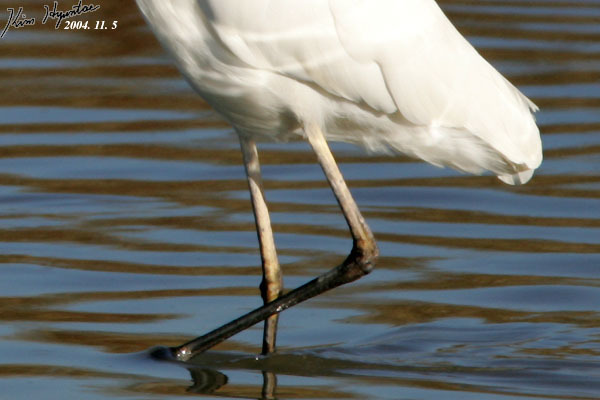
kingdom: Animalia
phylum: Chordata
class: Aves
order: Pelecaniformes
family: Ardeidae
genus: Ardea
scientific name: Ardea alba
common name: Great egret
